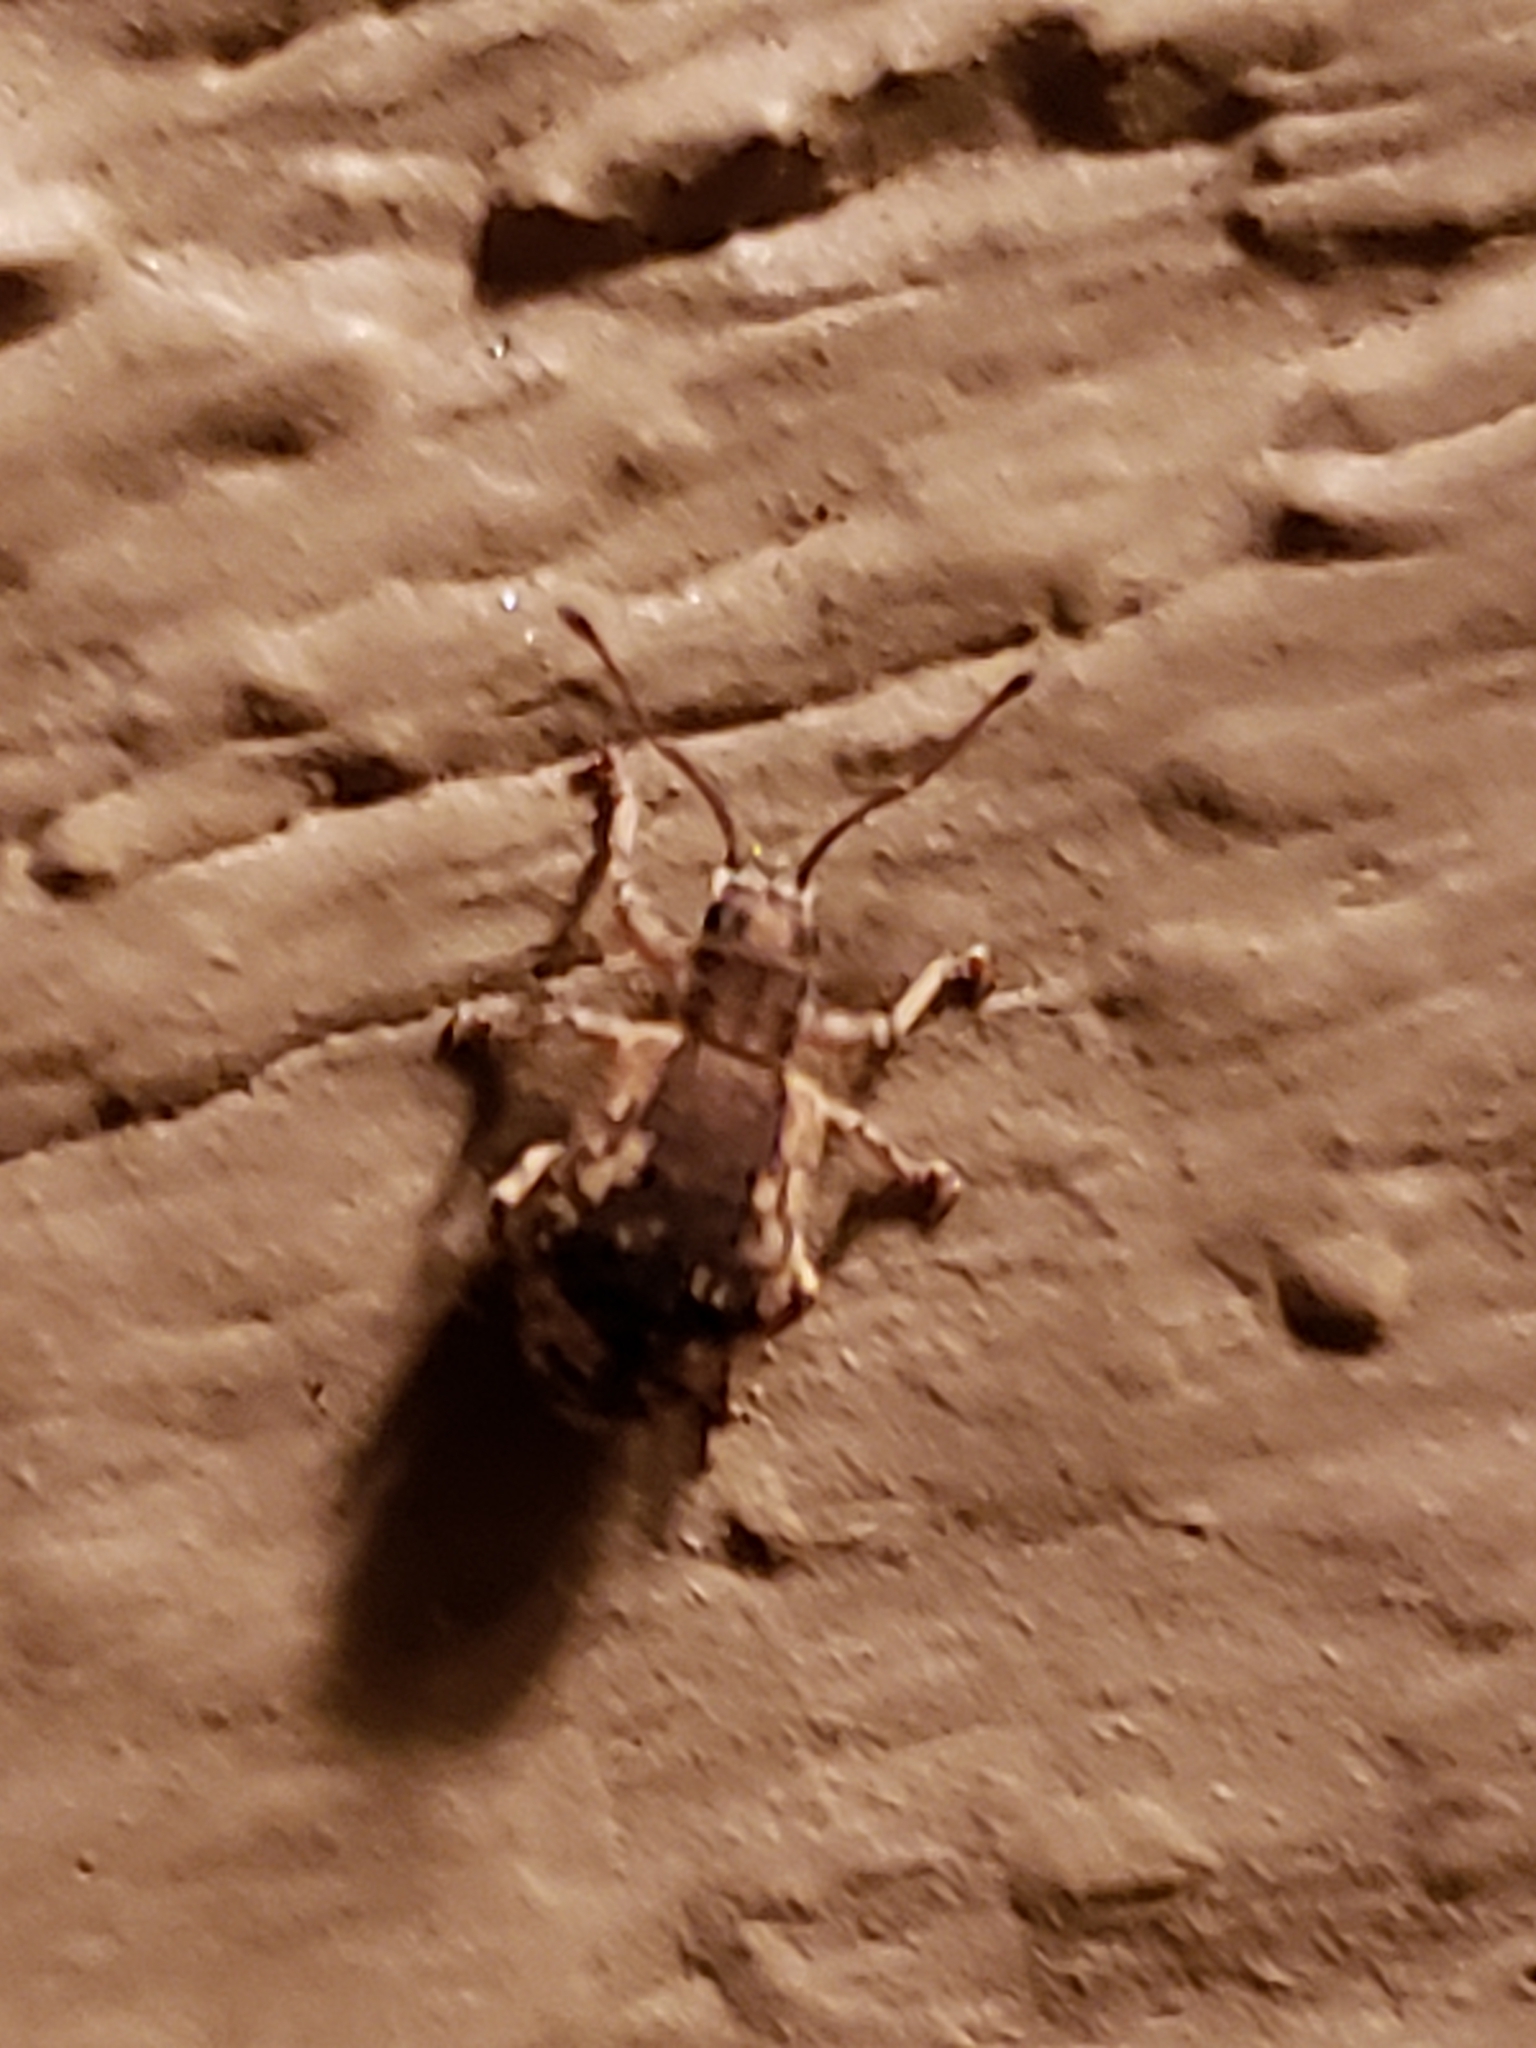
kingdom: Animalia
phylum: Arthropoda
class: Insecta
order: Coleoptera
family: Curculionidae
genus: Pseudoedophrys
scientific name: Pseudoedophrys hilleri
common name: Weevil
